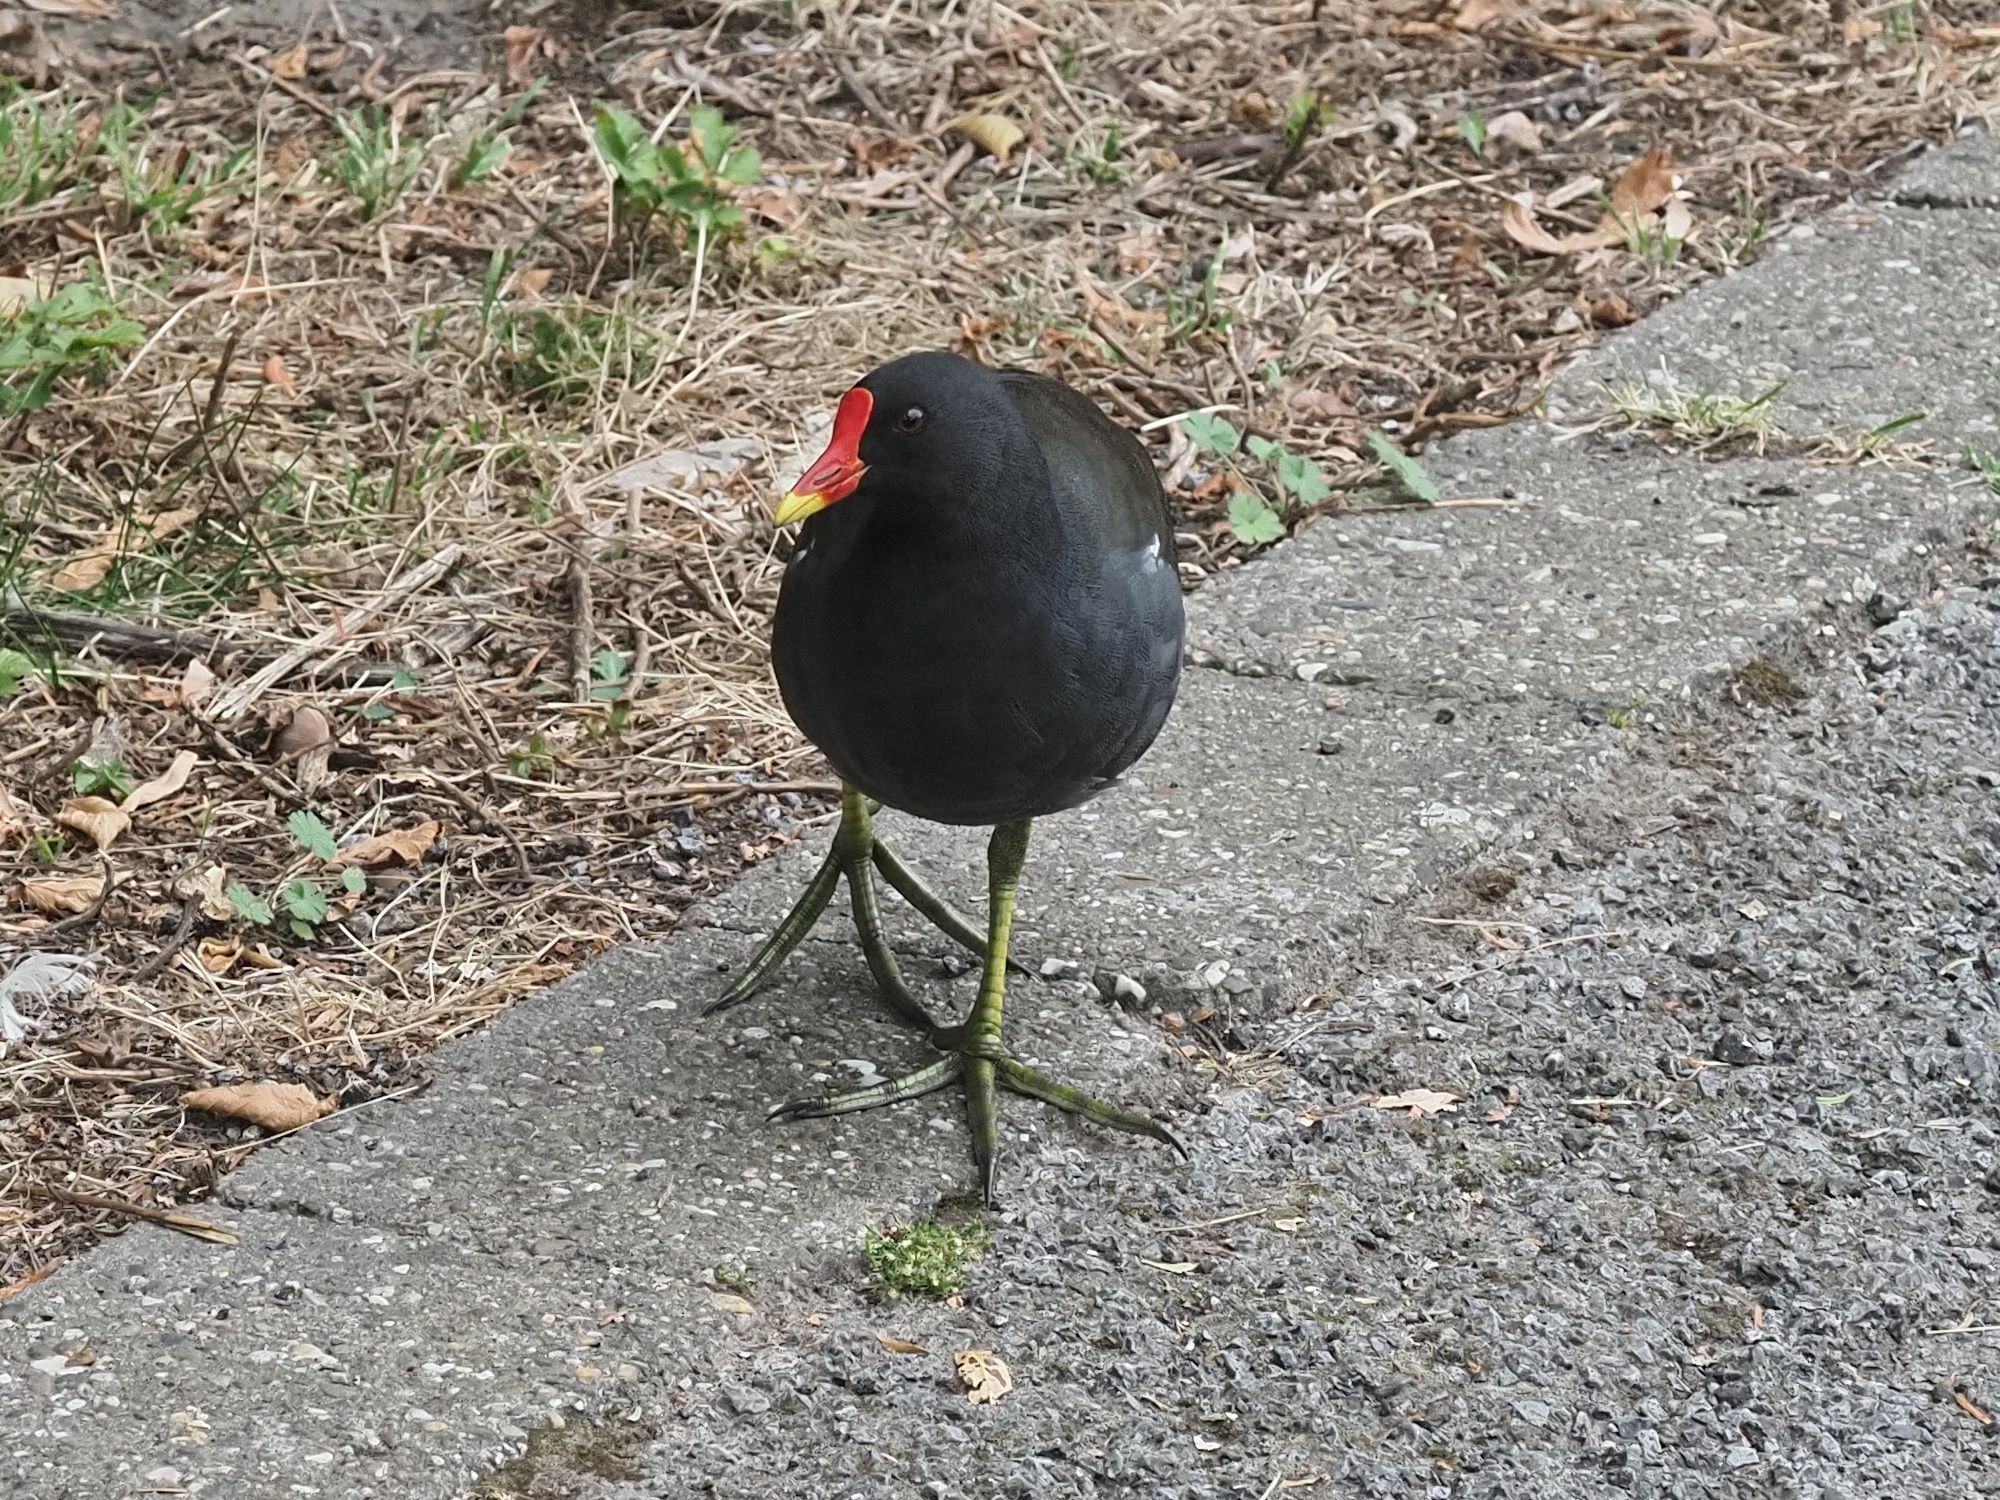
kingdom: Animalia
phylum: Chordata
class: Aves
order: Gruiformes
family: Rallidae
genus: Gallinula
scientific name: Gallinula chloropus
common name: Common moorhen
